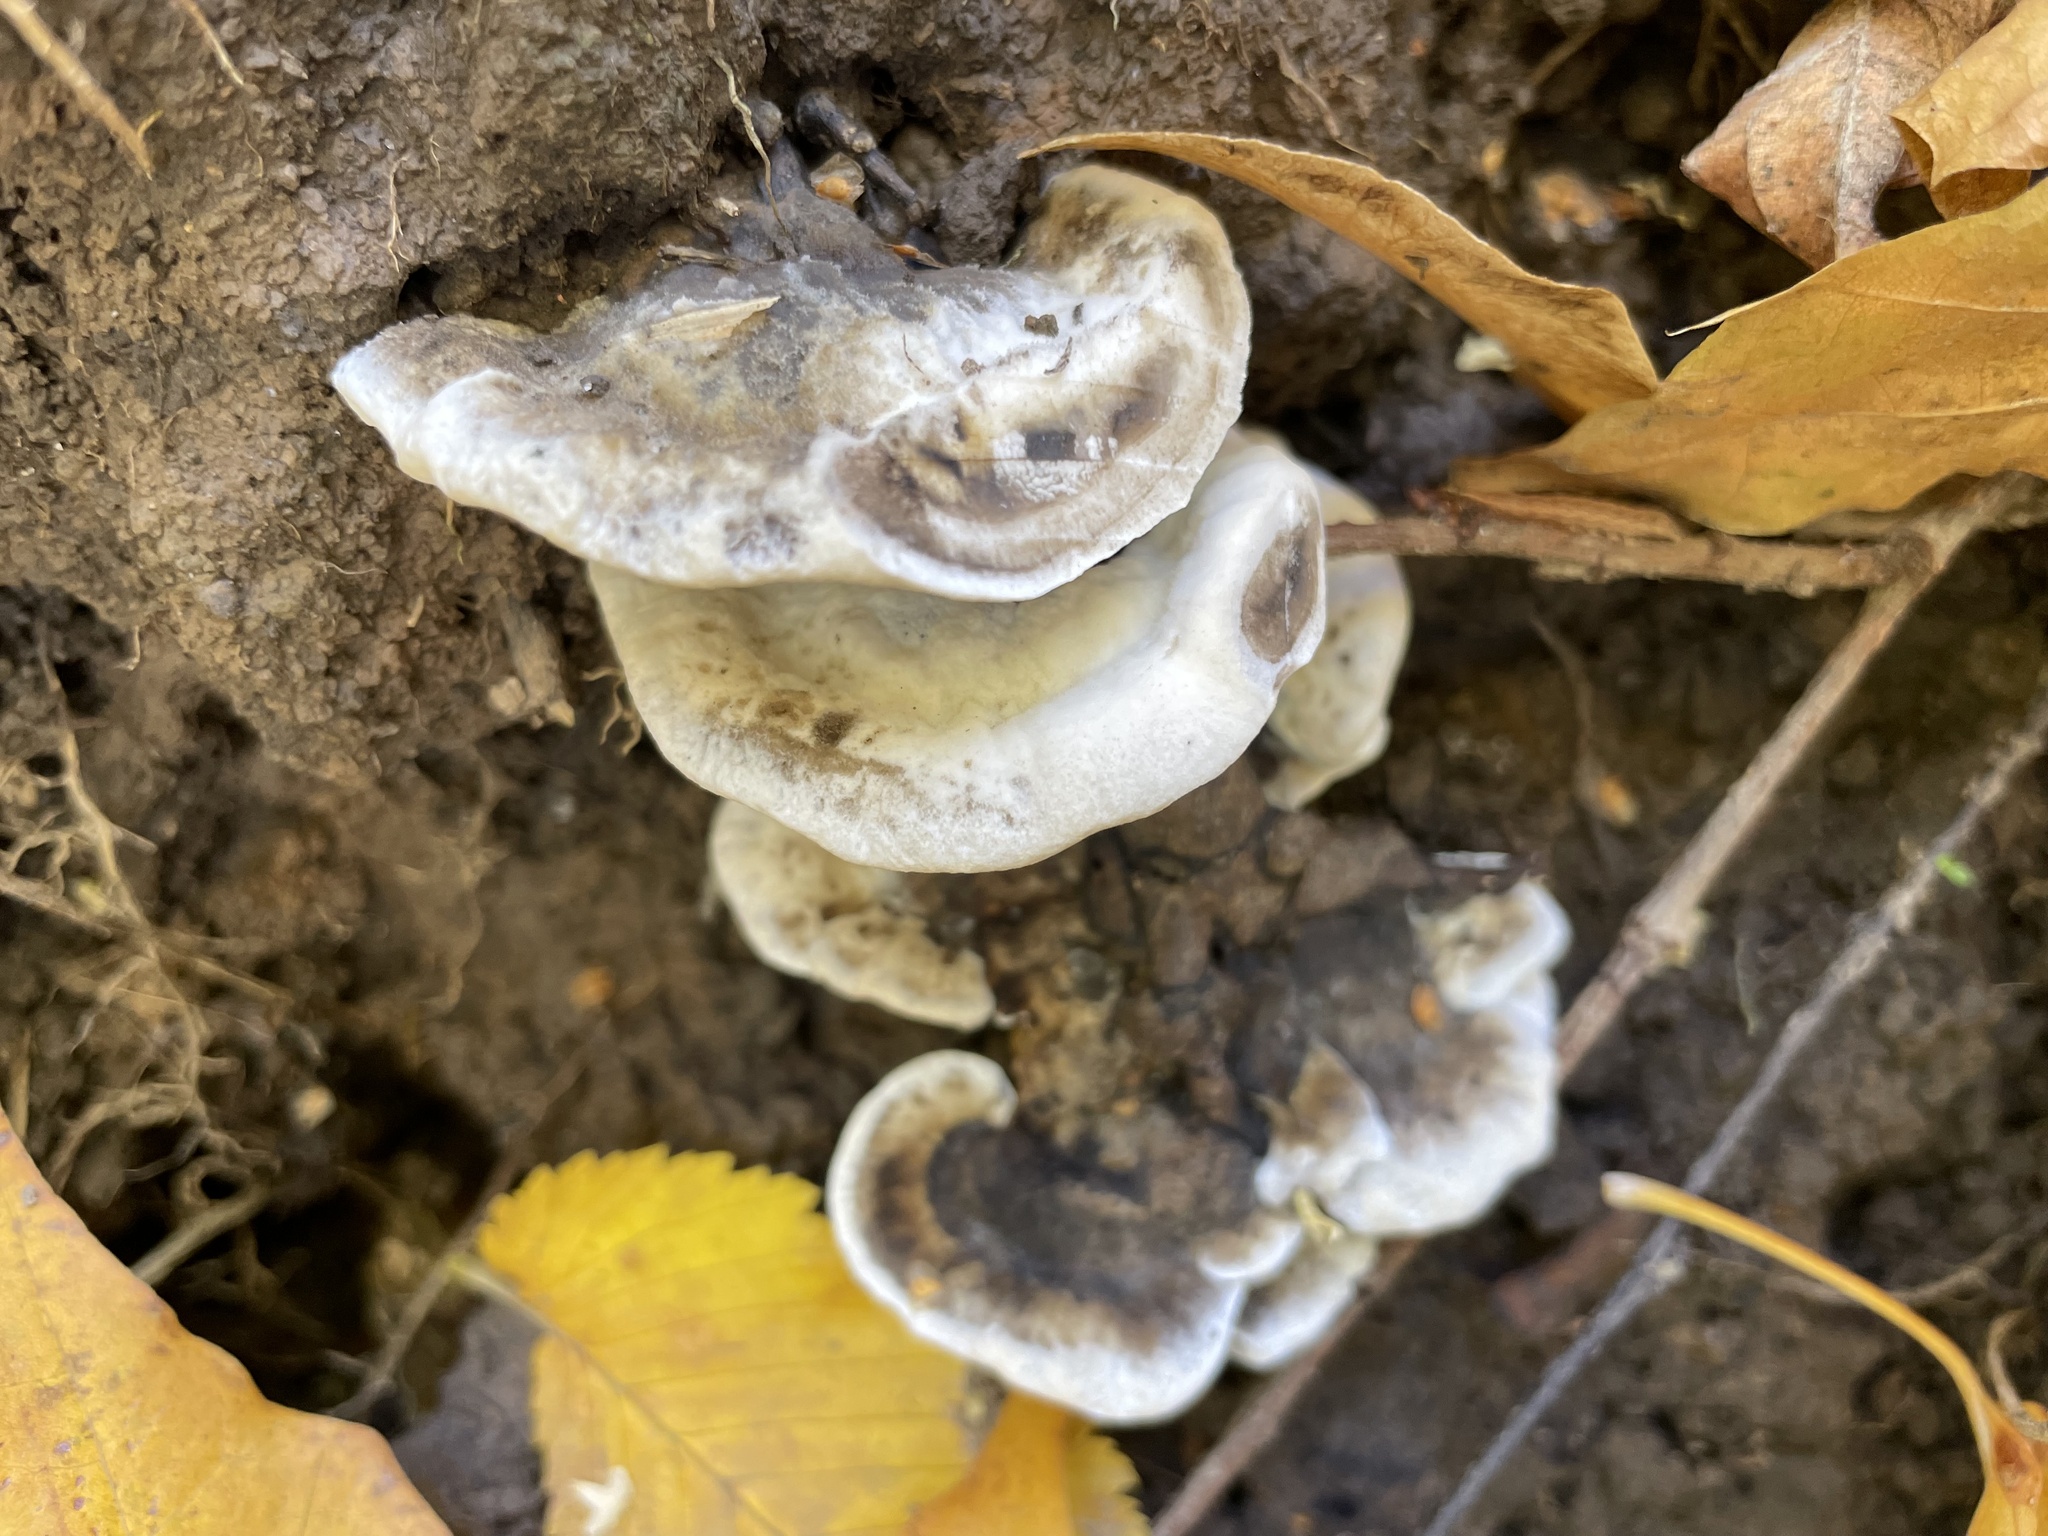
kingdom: Fungi
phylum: Basidiomycota
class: Agaricomycetes
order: Polyporales
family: Phanerochaetaceae
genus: Bjerkandera
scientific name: Bjerkandera adusta
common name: Smoky bracket
